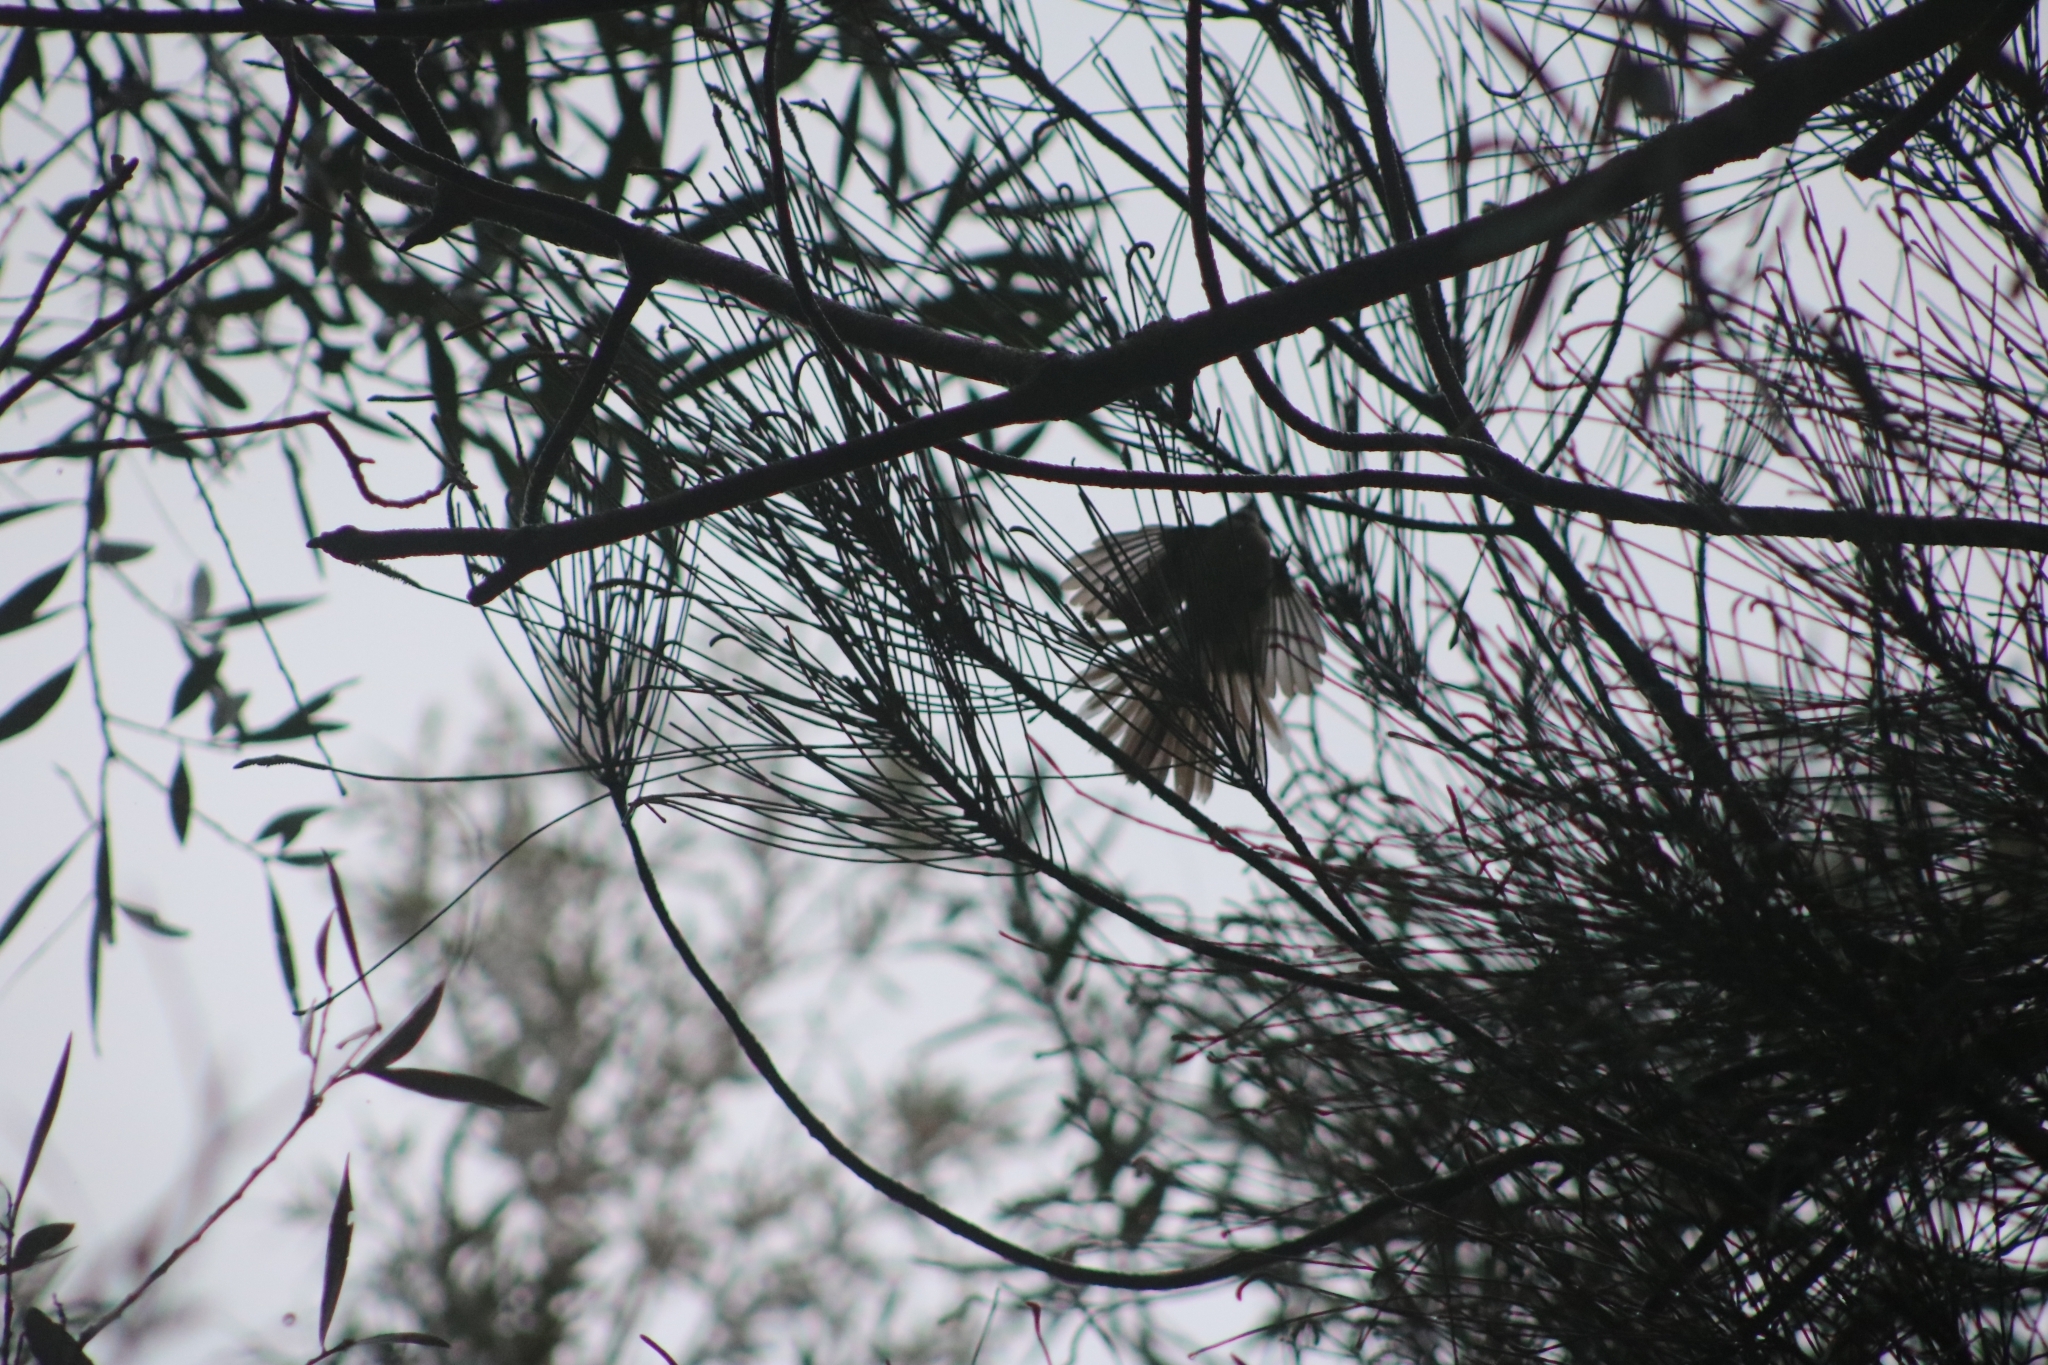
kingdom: Animalia
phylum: Chordata
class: Aves
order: Passeriformes
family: Rhipiduridae
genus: Rhipidura
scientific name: Rhipidura albiscapa
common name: Grey fantail
